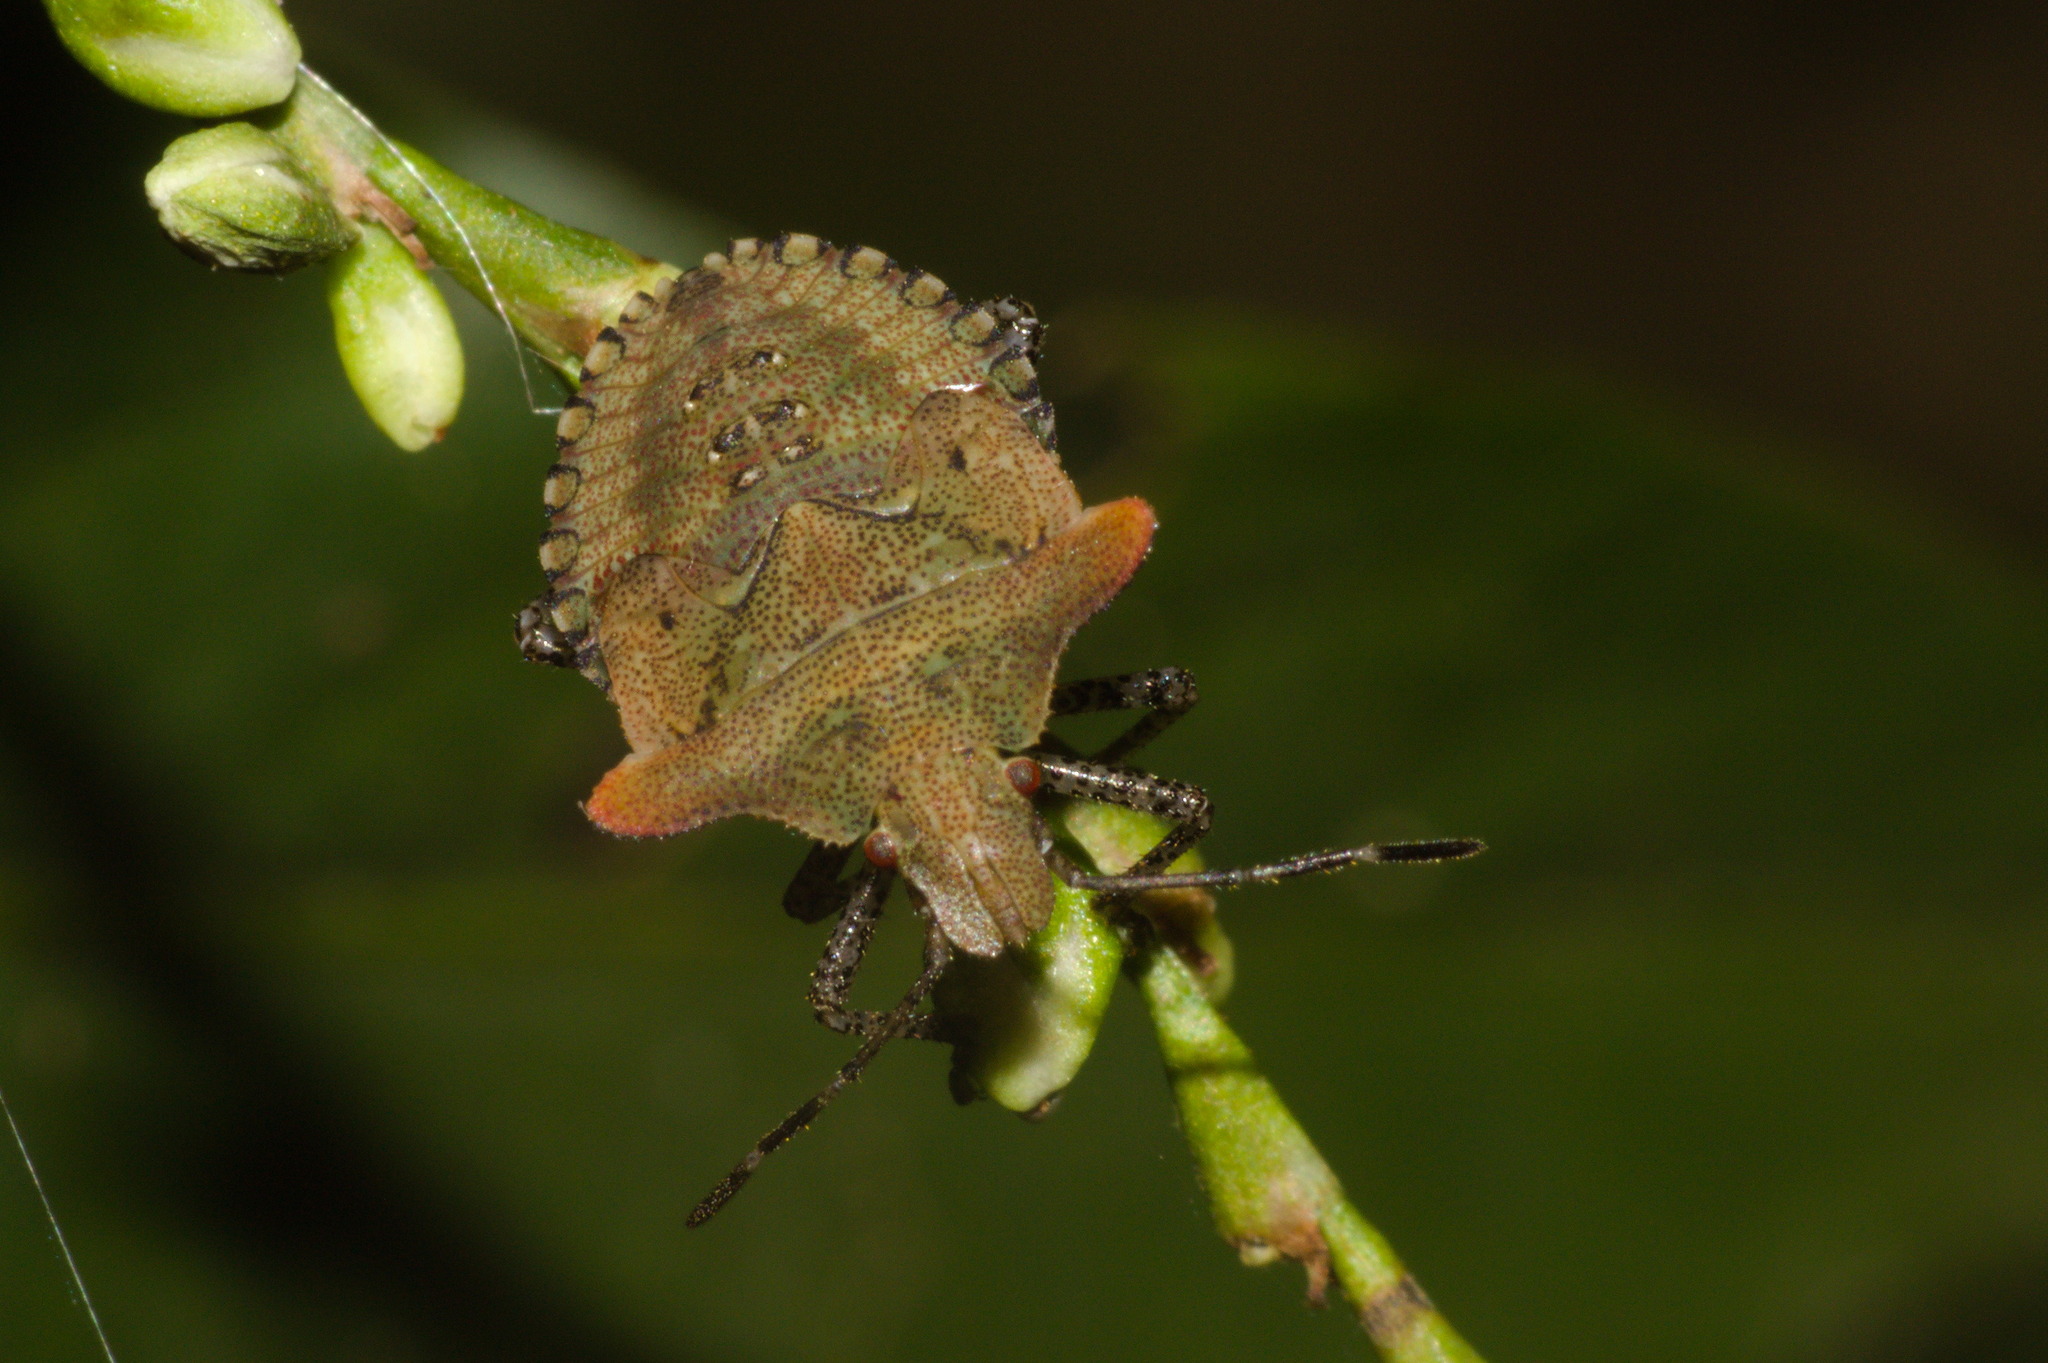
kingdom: Animalia
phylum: Arthropoda
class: Insecta
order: Hemiptera
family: Pentatomidae
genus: Euschistus
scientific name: Euschistus cornutus
